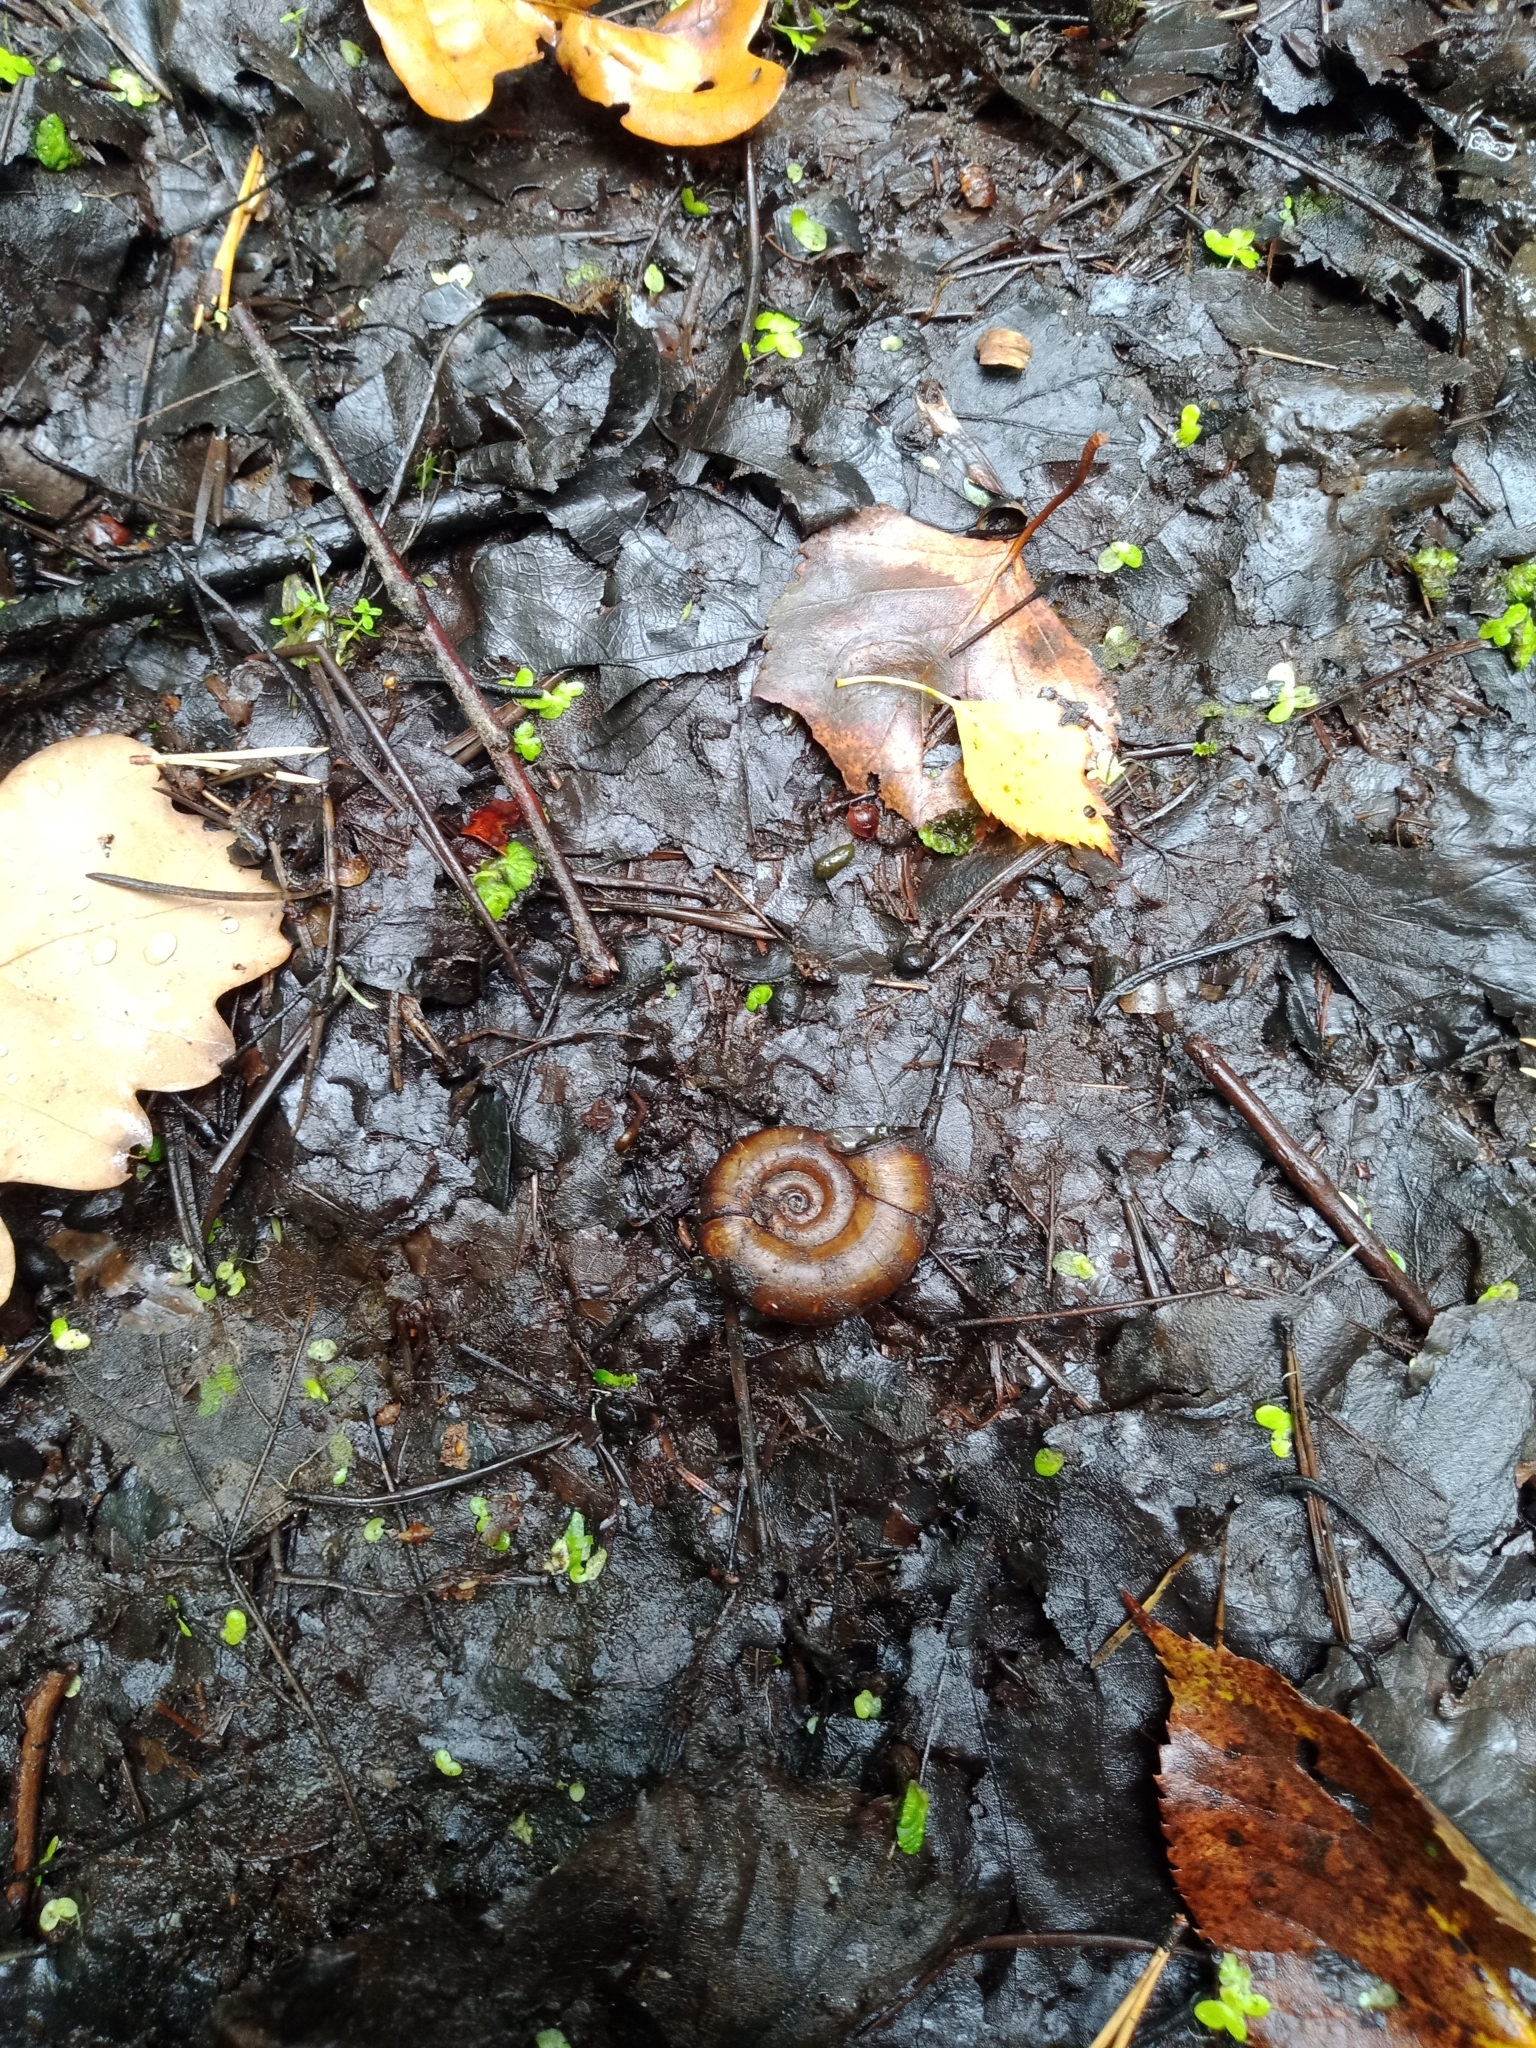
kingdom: Animalia
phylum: Mollusca
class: Gastropoda
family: Planorbidae
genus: Planorbarius
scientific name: Planorbarius corneus
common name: Great ramshorn
